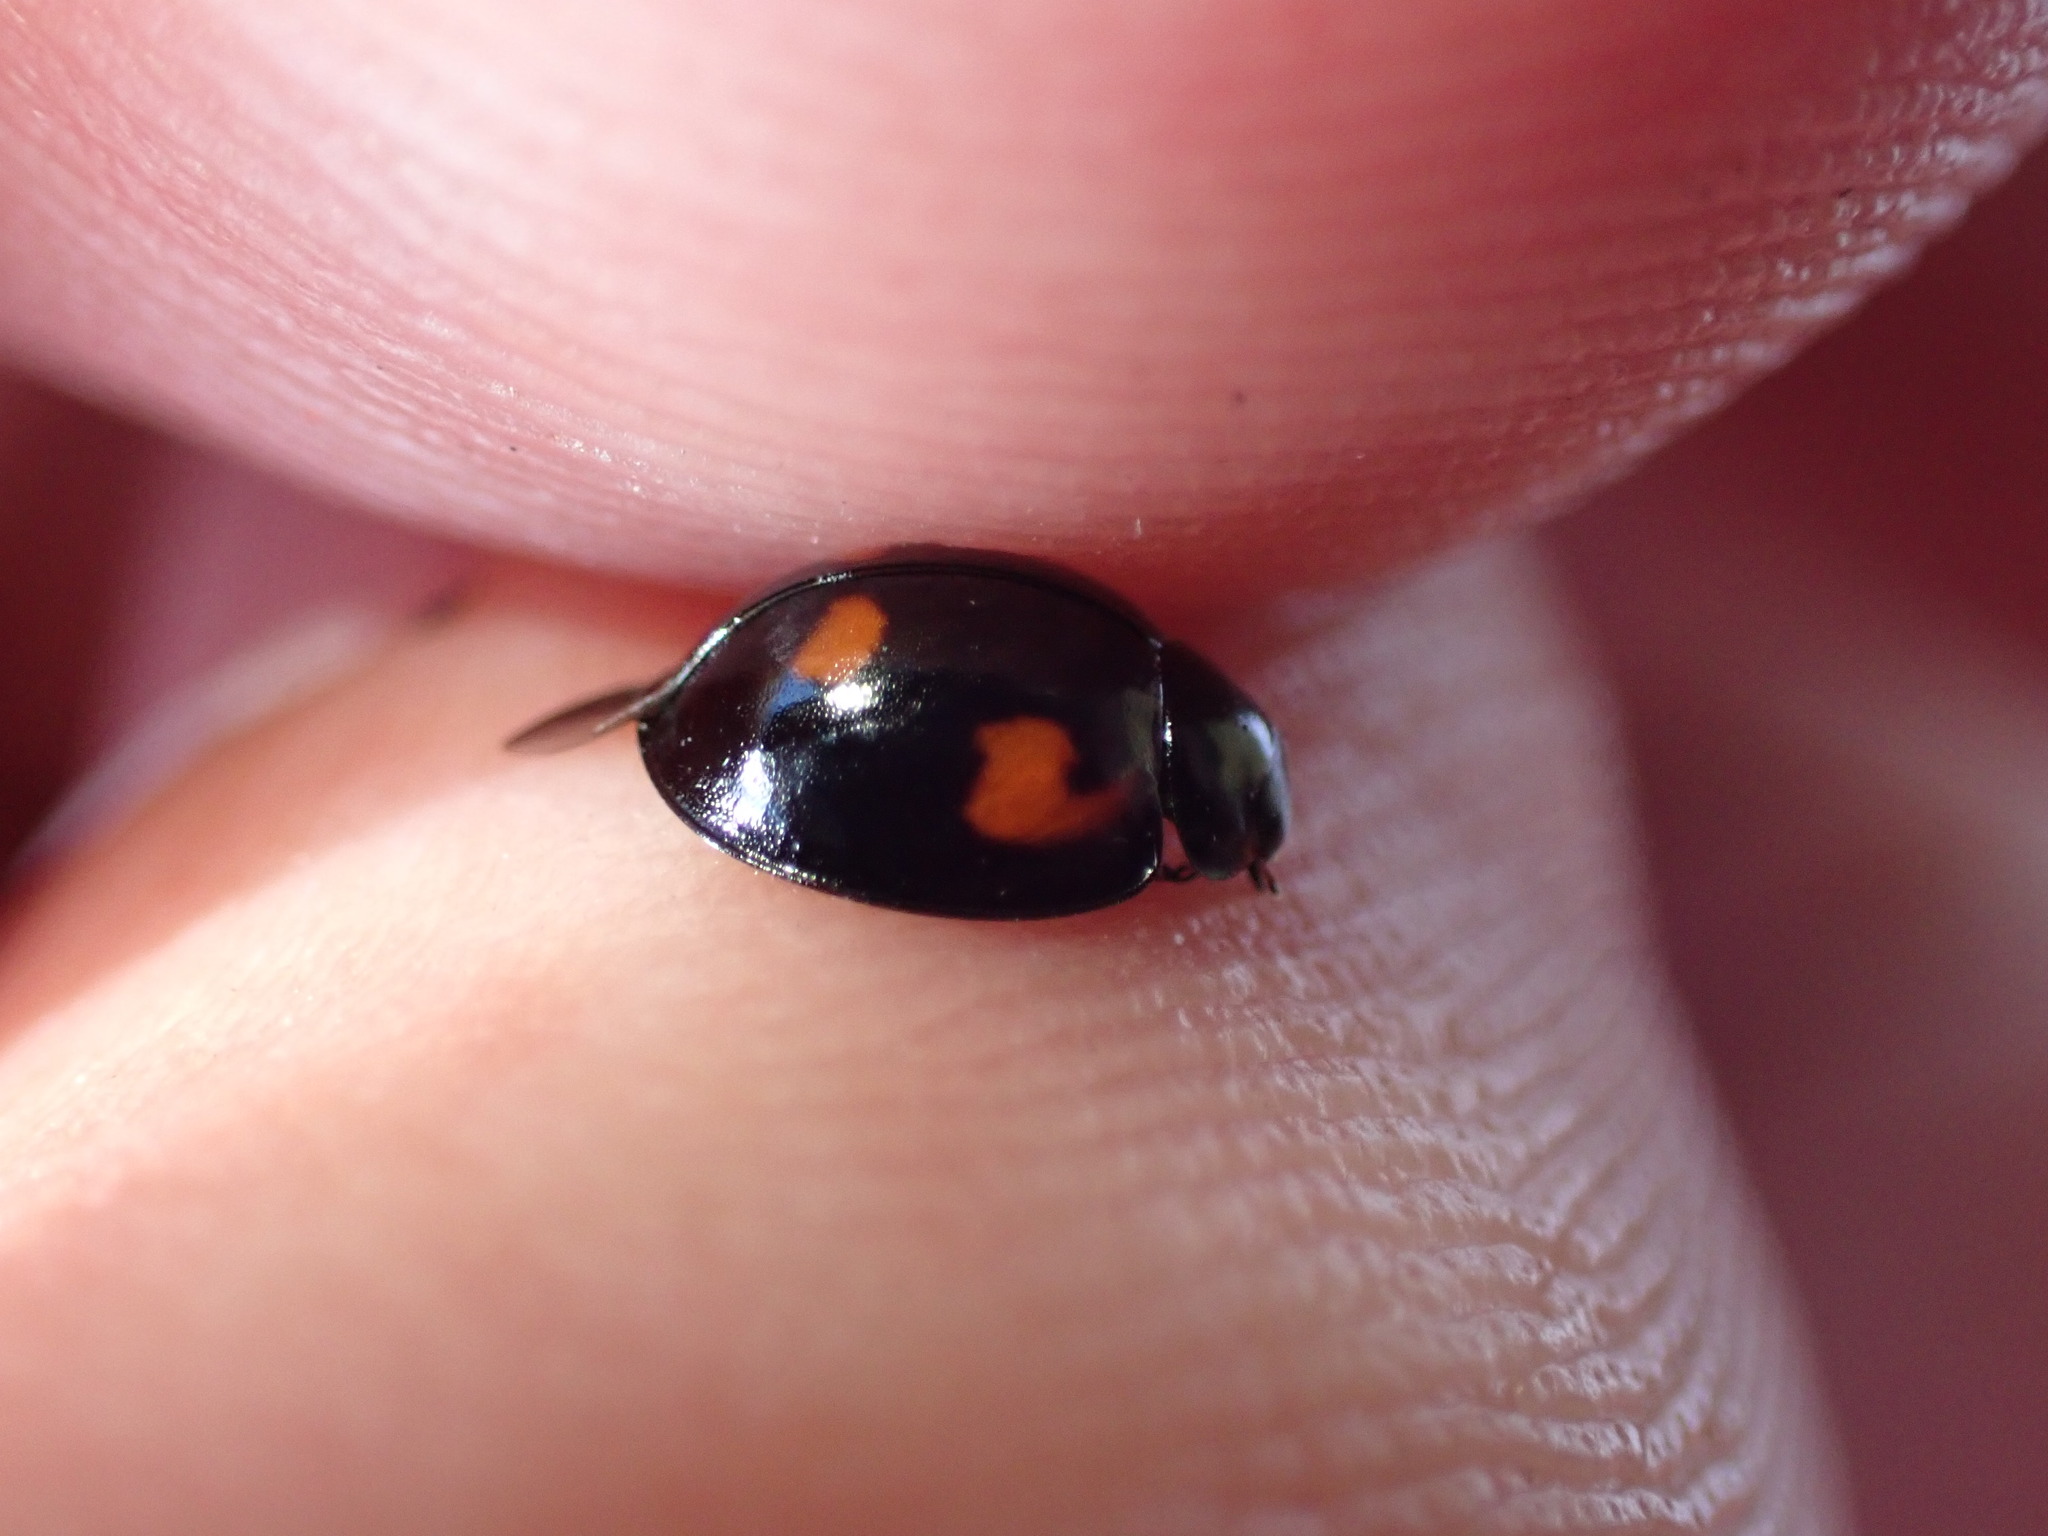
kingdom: Animalia
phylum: Arthropoda
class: Insecta
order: Coleoptera
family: Coccinellidae
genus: Brumus
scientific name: Brumus quadripustulatus
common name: Ladybird beetle
